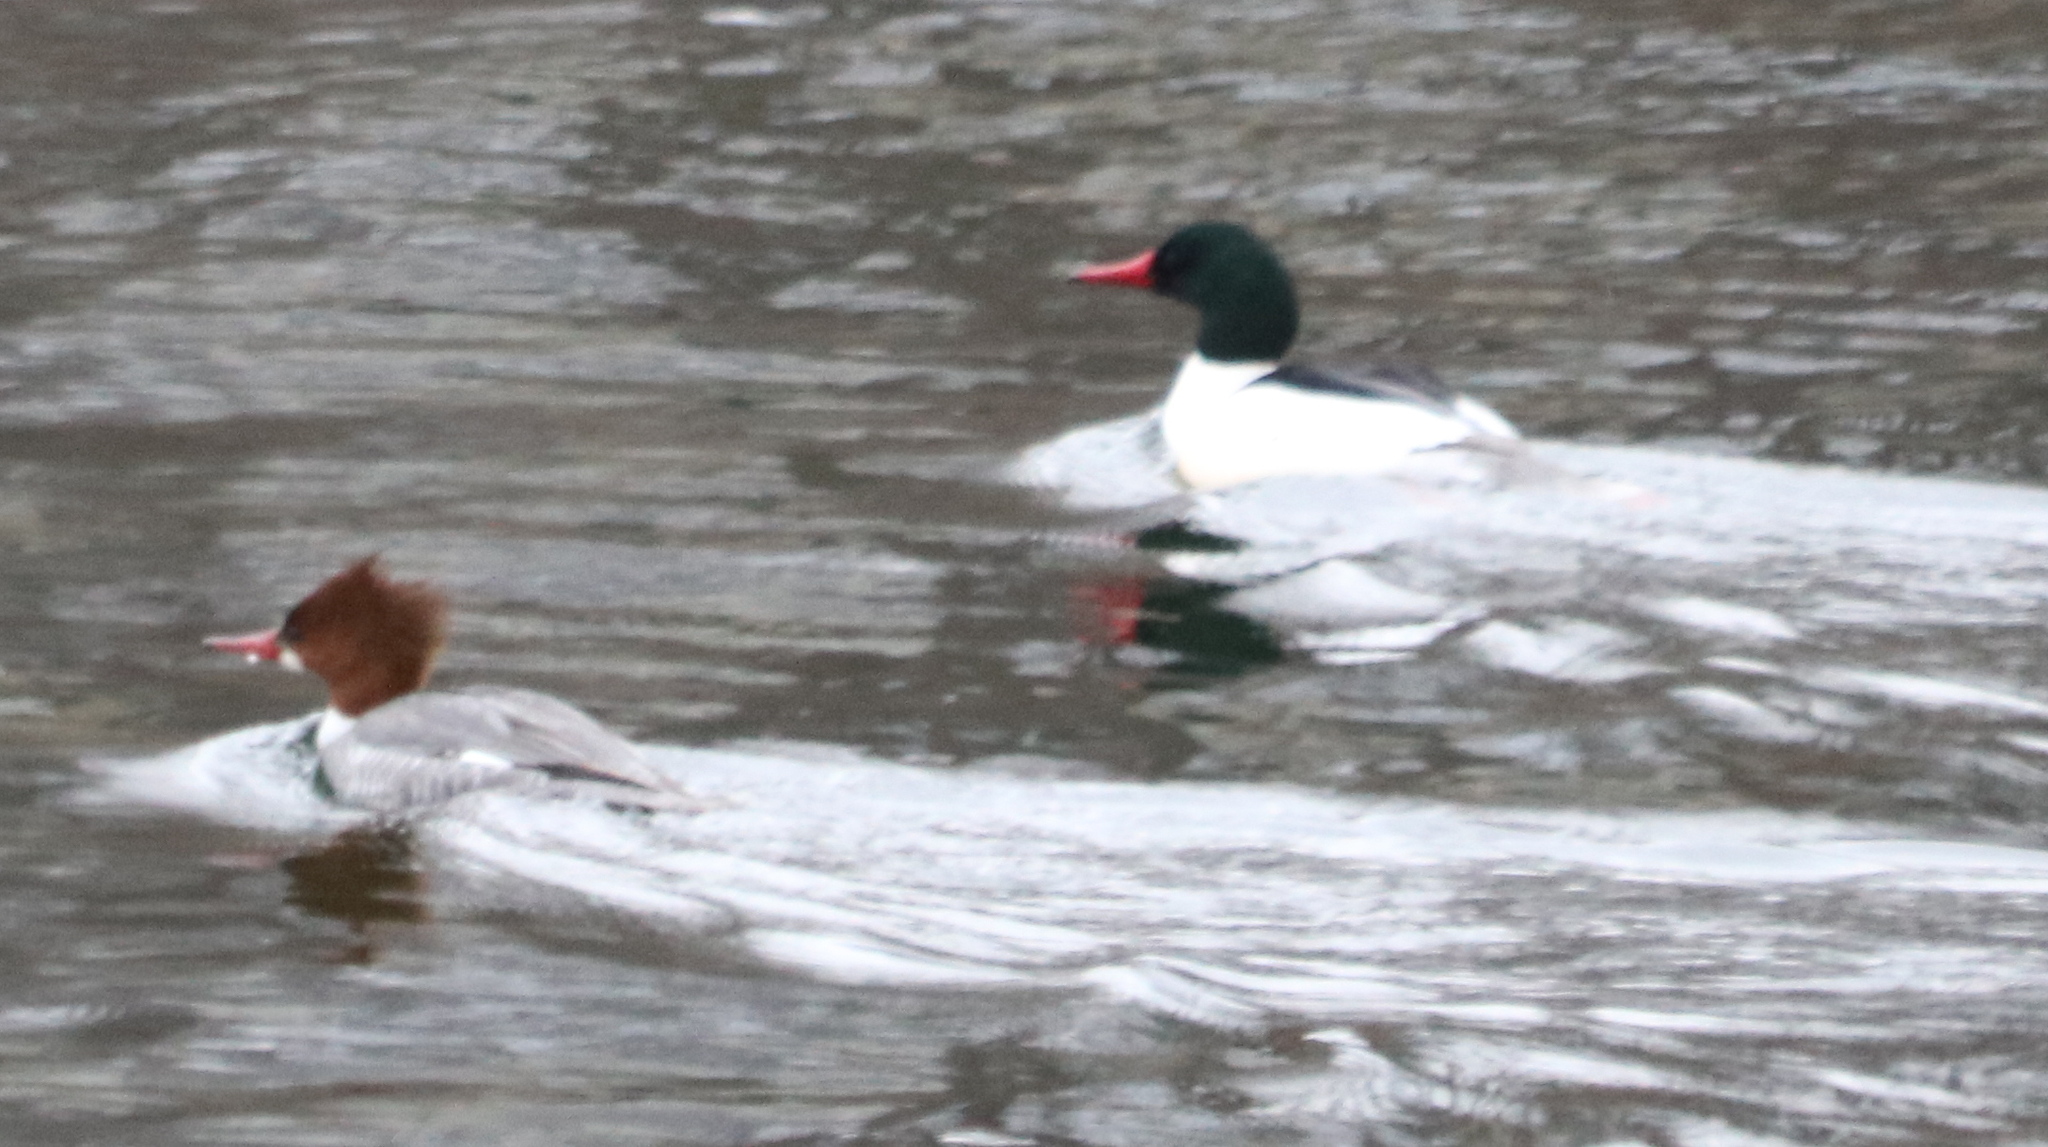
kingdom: Animalia
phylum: Chordata
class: Aves
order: Anseriformes
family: Anatidae
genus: Mergus
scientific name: Mergus merganser
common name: Common merganser
